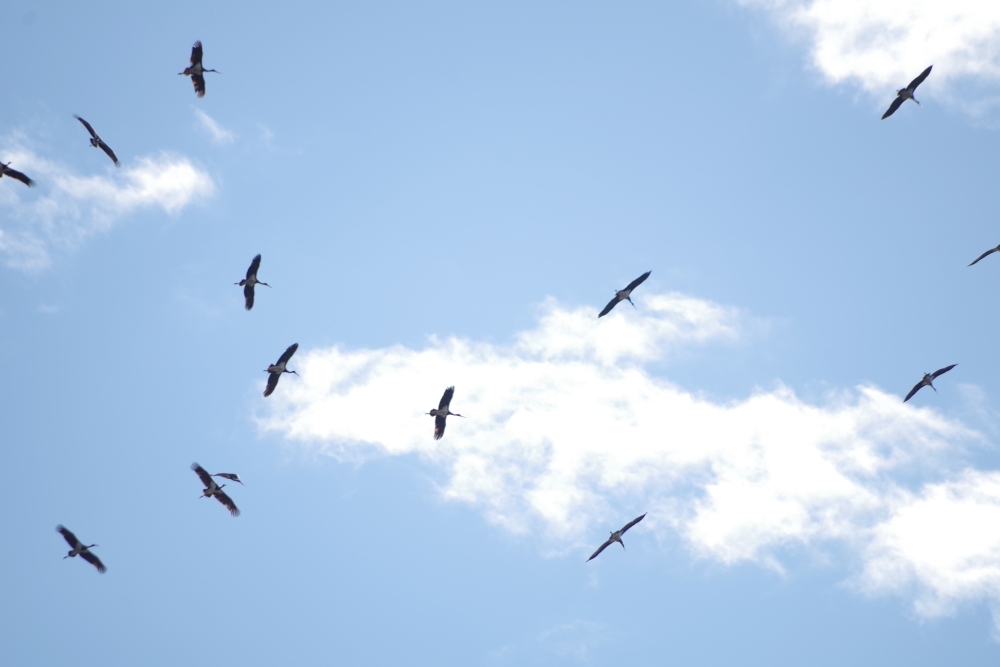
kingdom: Animalia
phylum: Chordata
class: Aves
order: Ciconiiformes
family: Ciconiidae
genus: Ciconia
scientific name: Ciconia nigra
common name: Black stork
